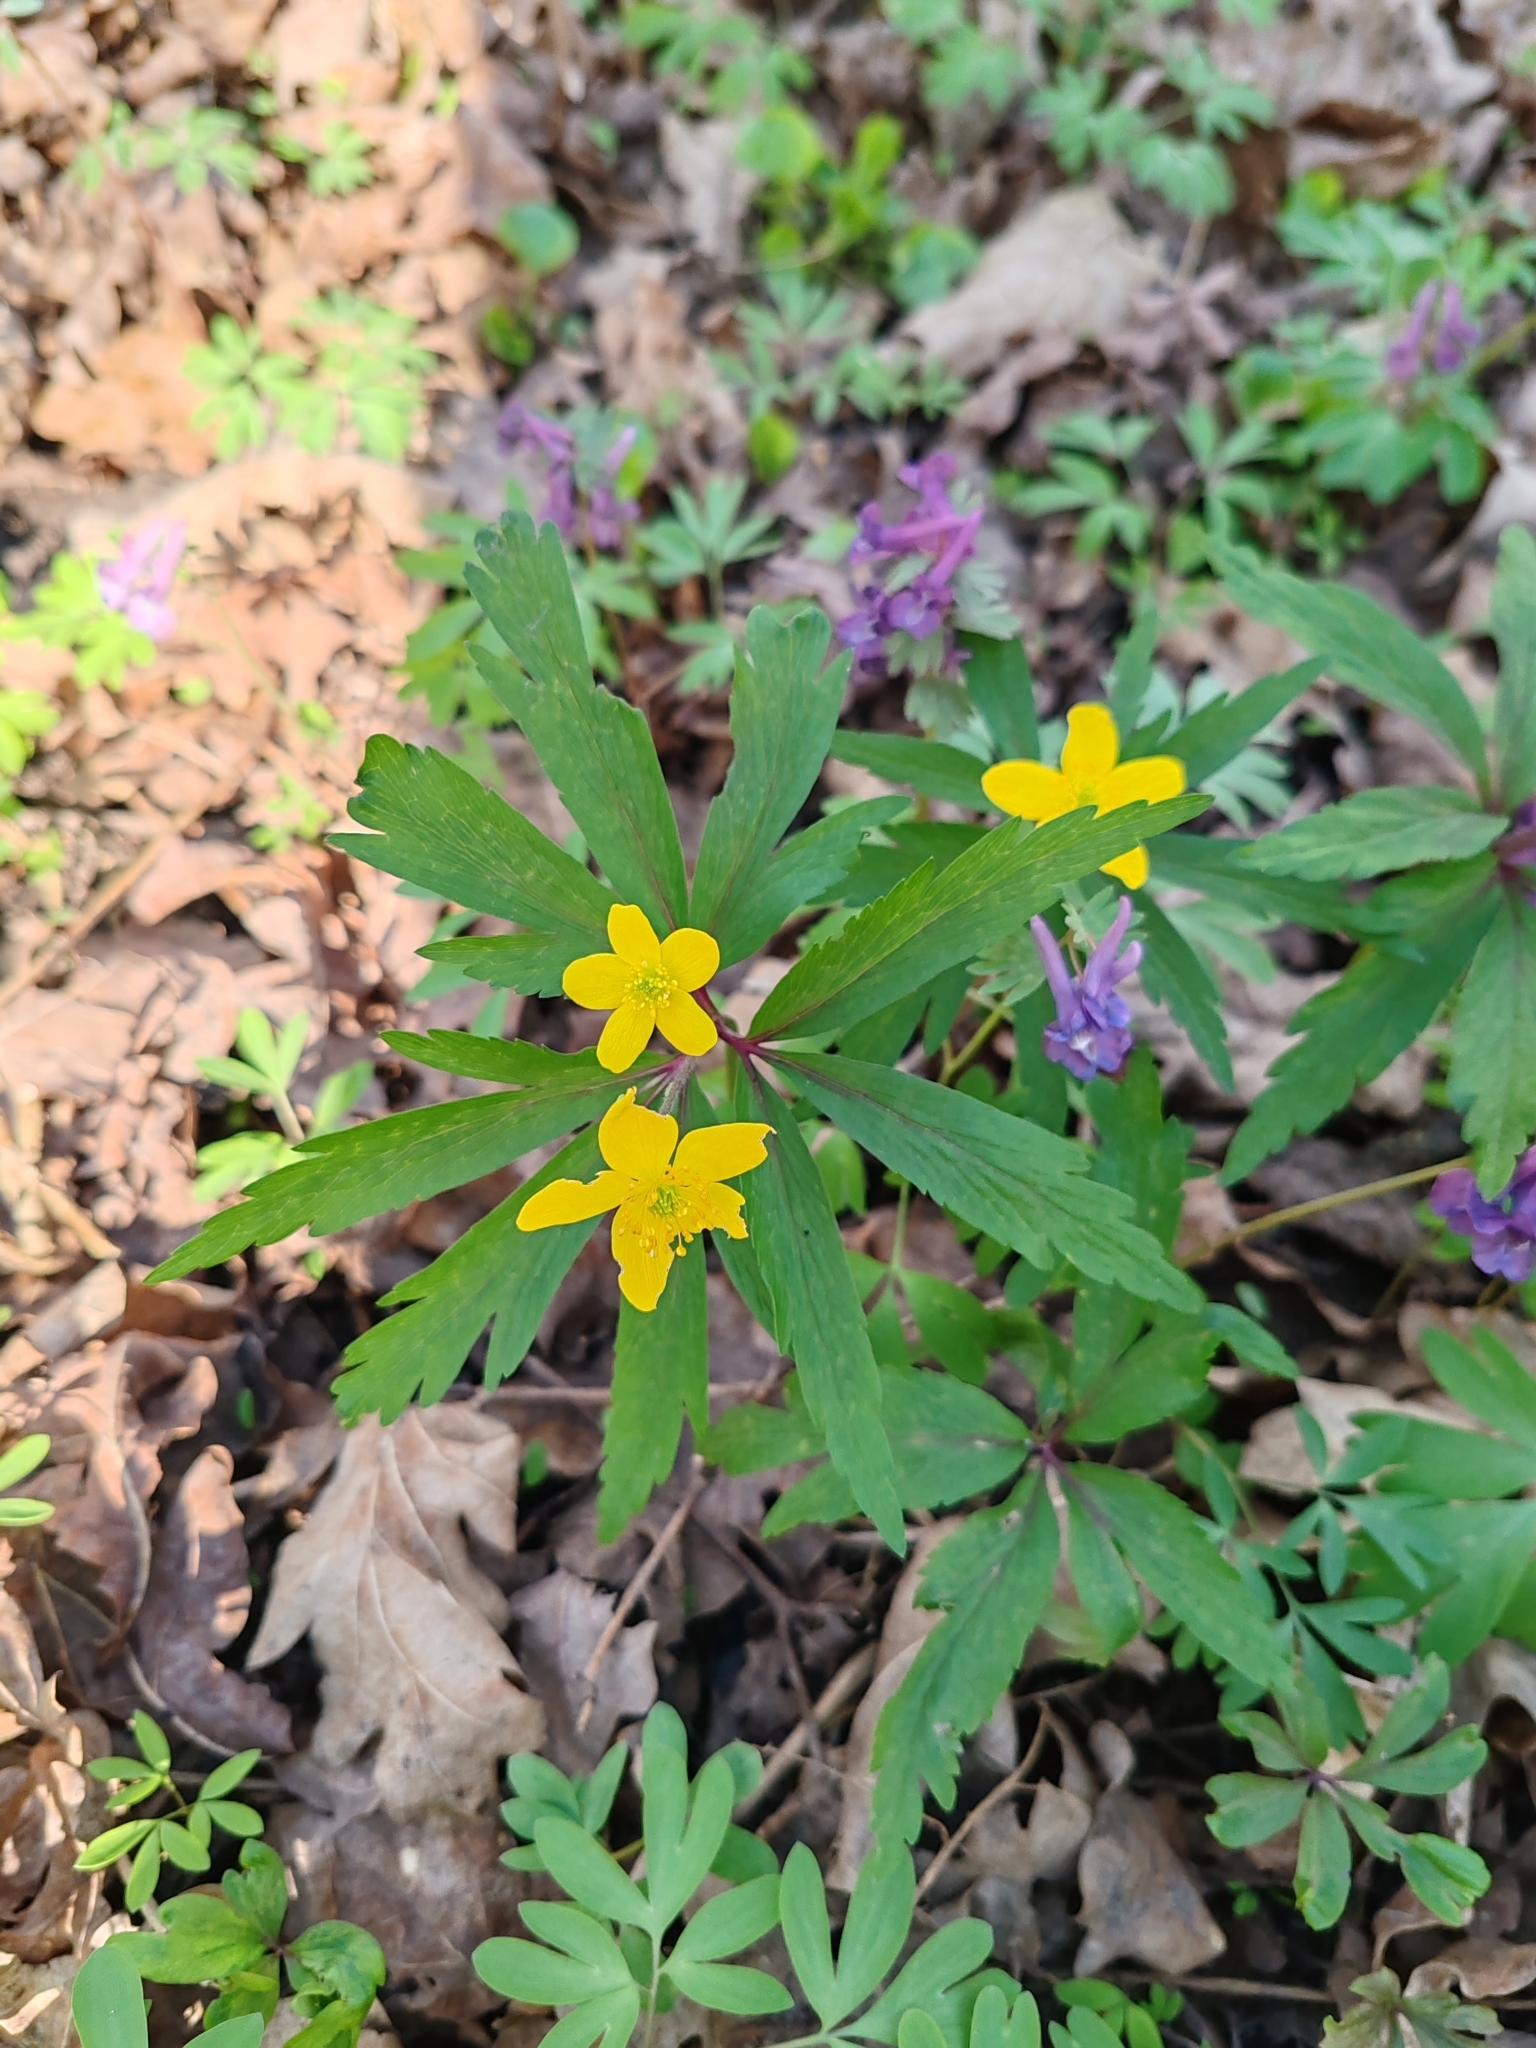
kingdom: Plantae
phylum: Tracheophyta
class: Magnoliopsida
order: Ranunculales
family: Ranunculaceae
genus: Anemone
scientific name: Anemone ranunculoides
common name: Yellow anemone
